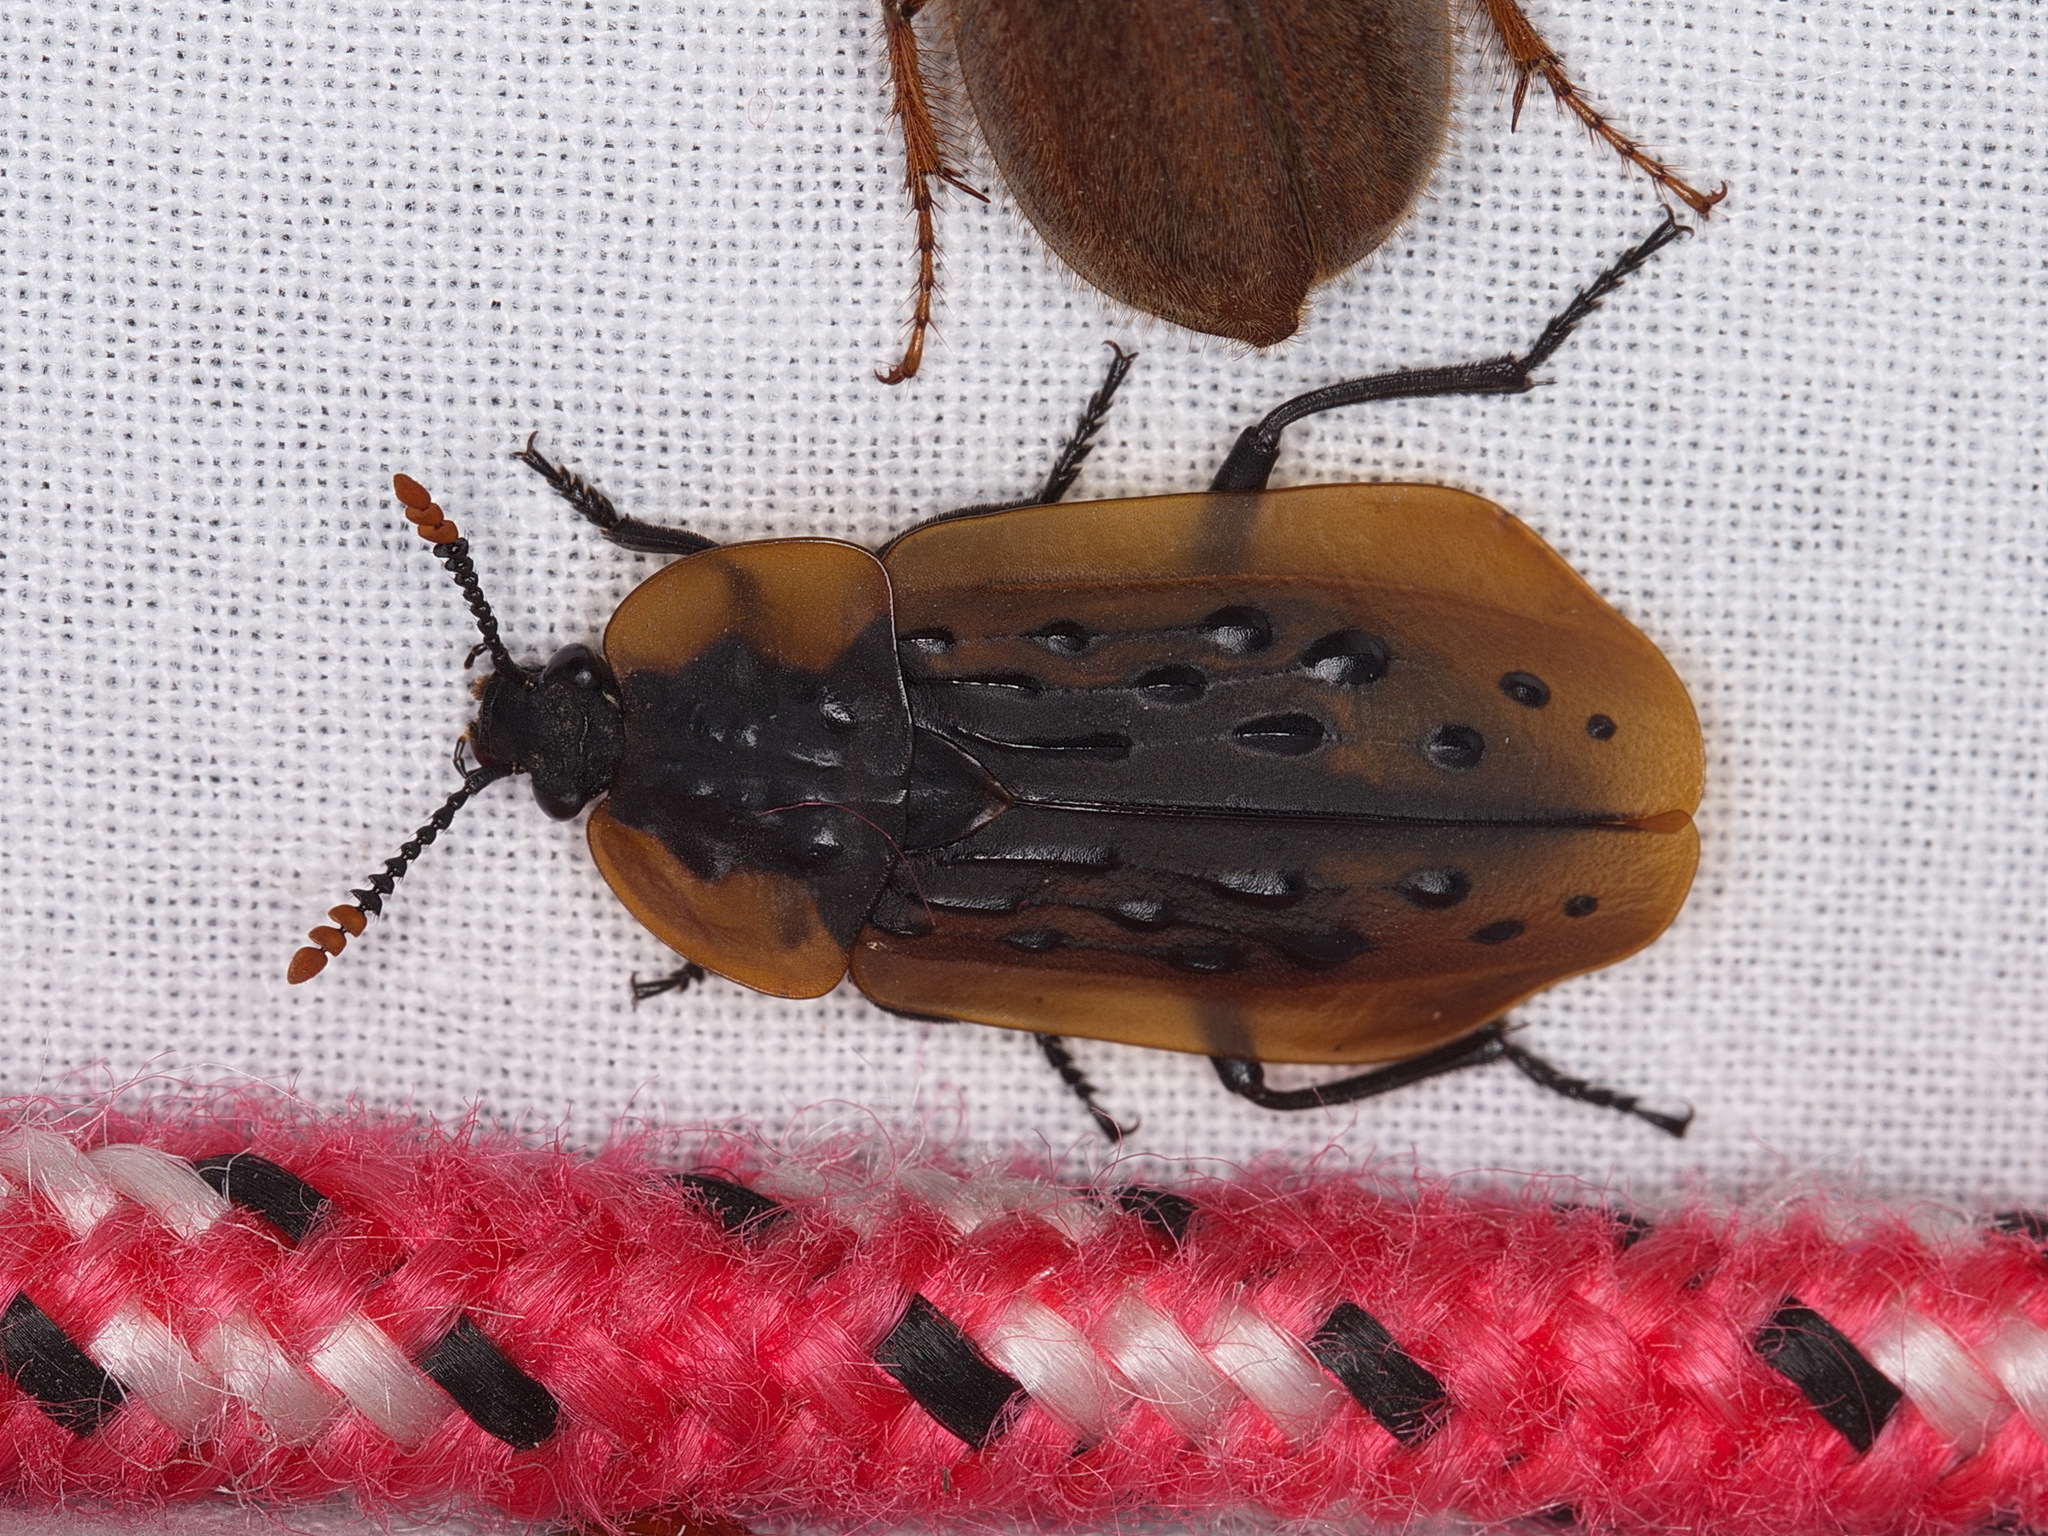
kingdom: Animalia
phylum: Arthropoda
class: Insecta
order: Coleoptera
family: Staphylinidae
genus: Ptomaphila
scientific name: Ptomaphila lacrymosa
